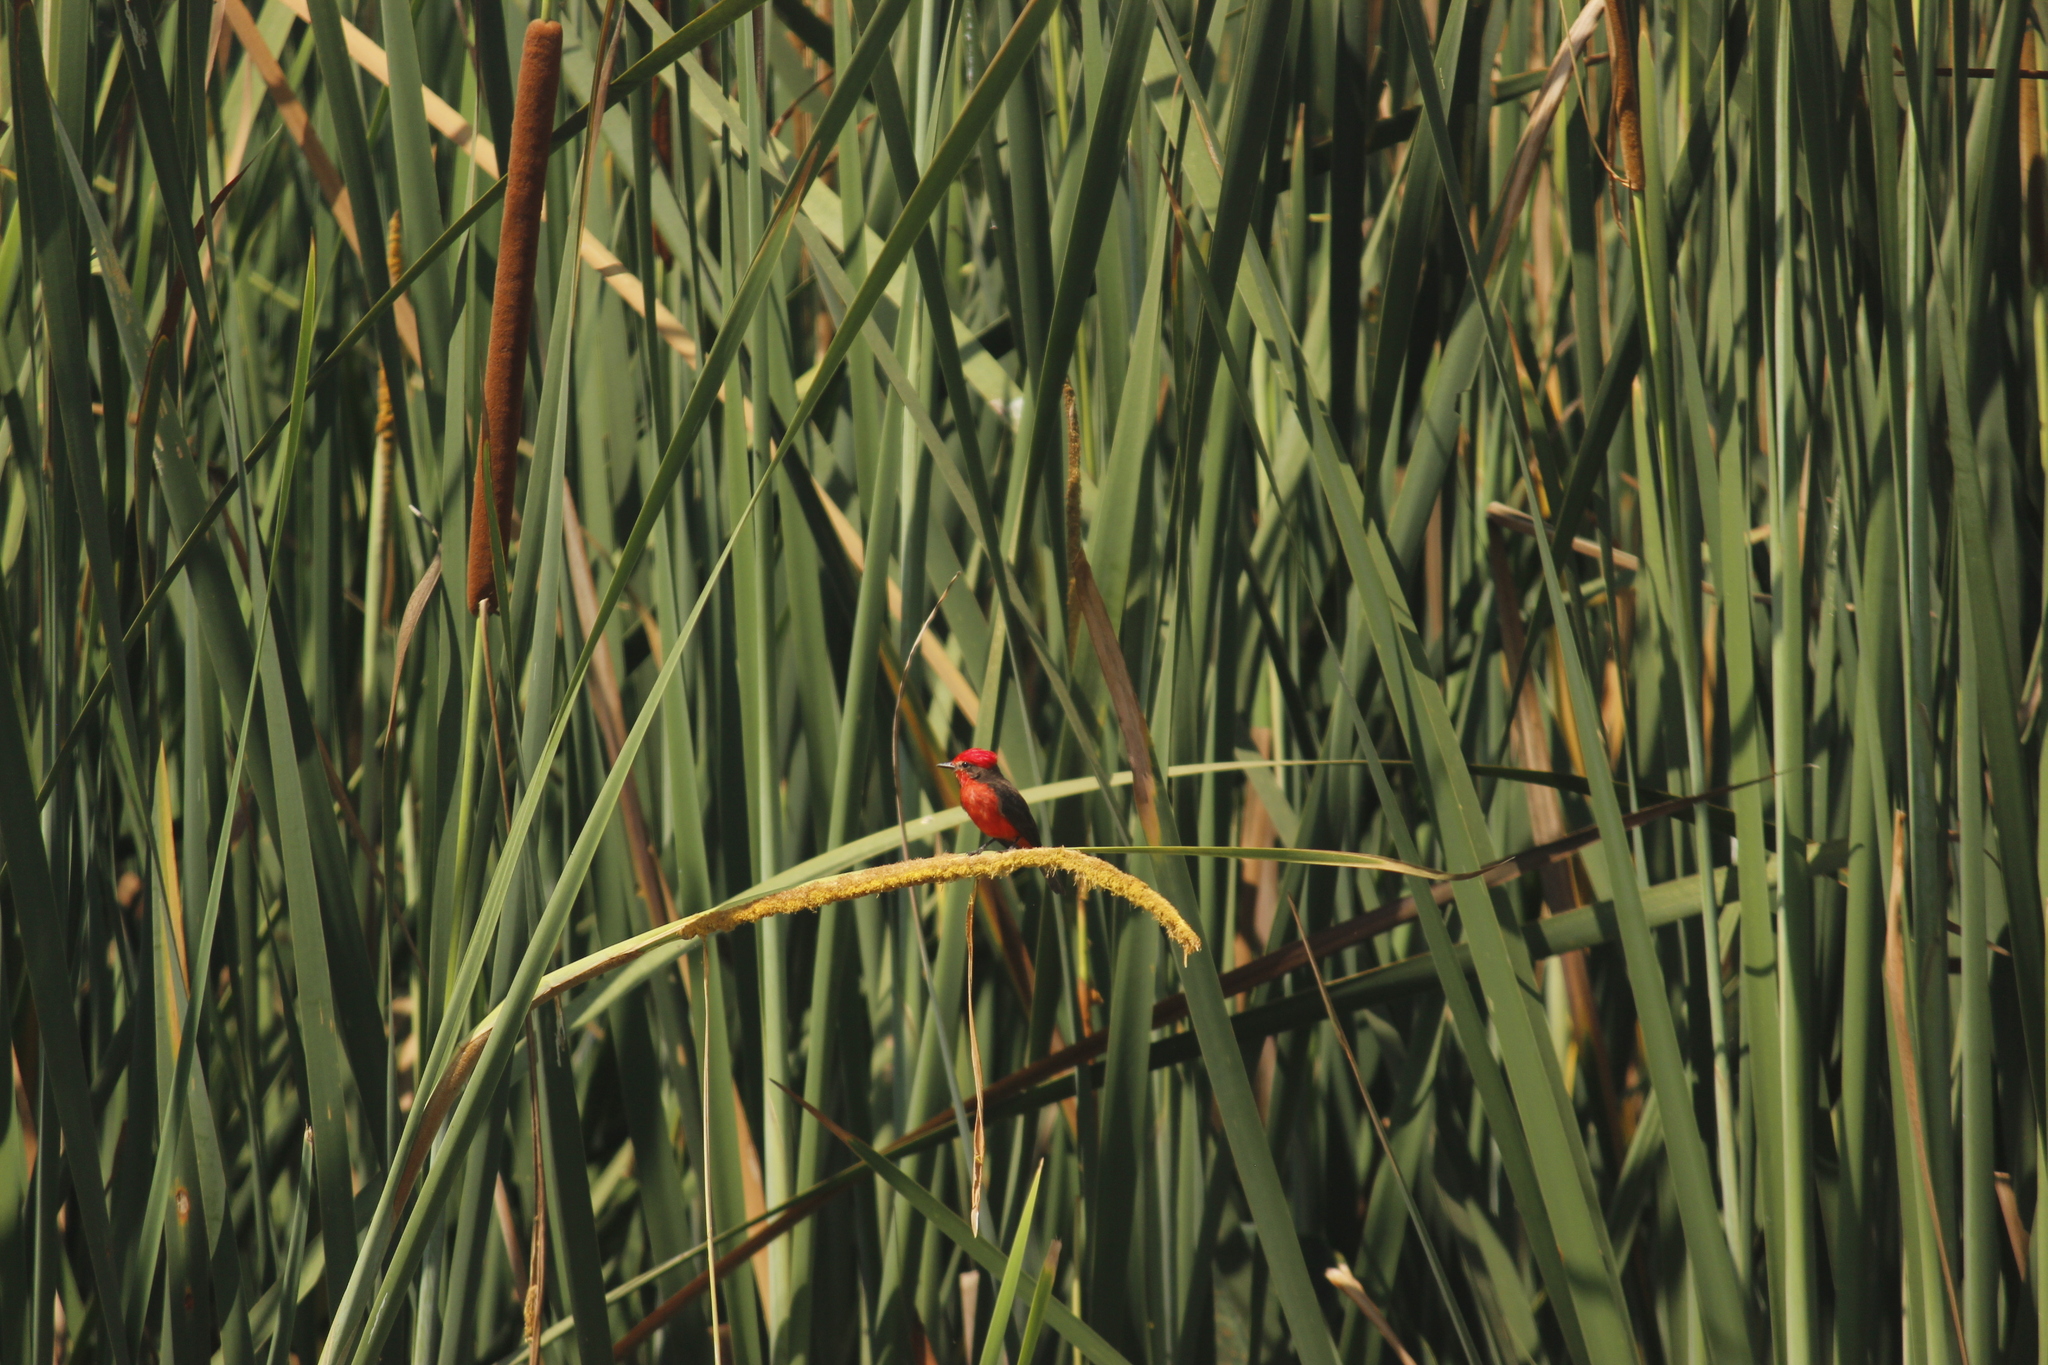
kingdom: Animalia
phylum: Chordata
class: Aves
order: Passeriformes
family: Tyrannidae
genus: Pyrocephalus
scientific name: Pyrocephalus rubinus
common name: Vermilion flycatcher
